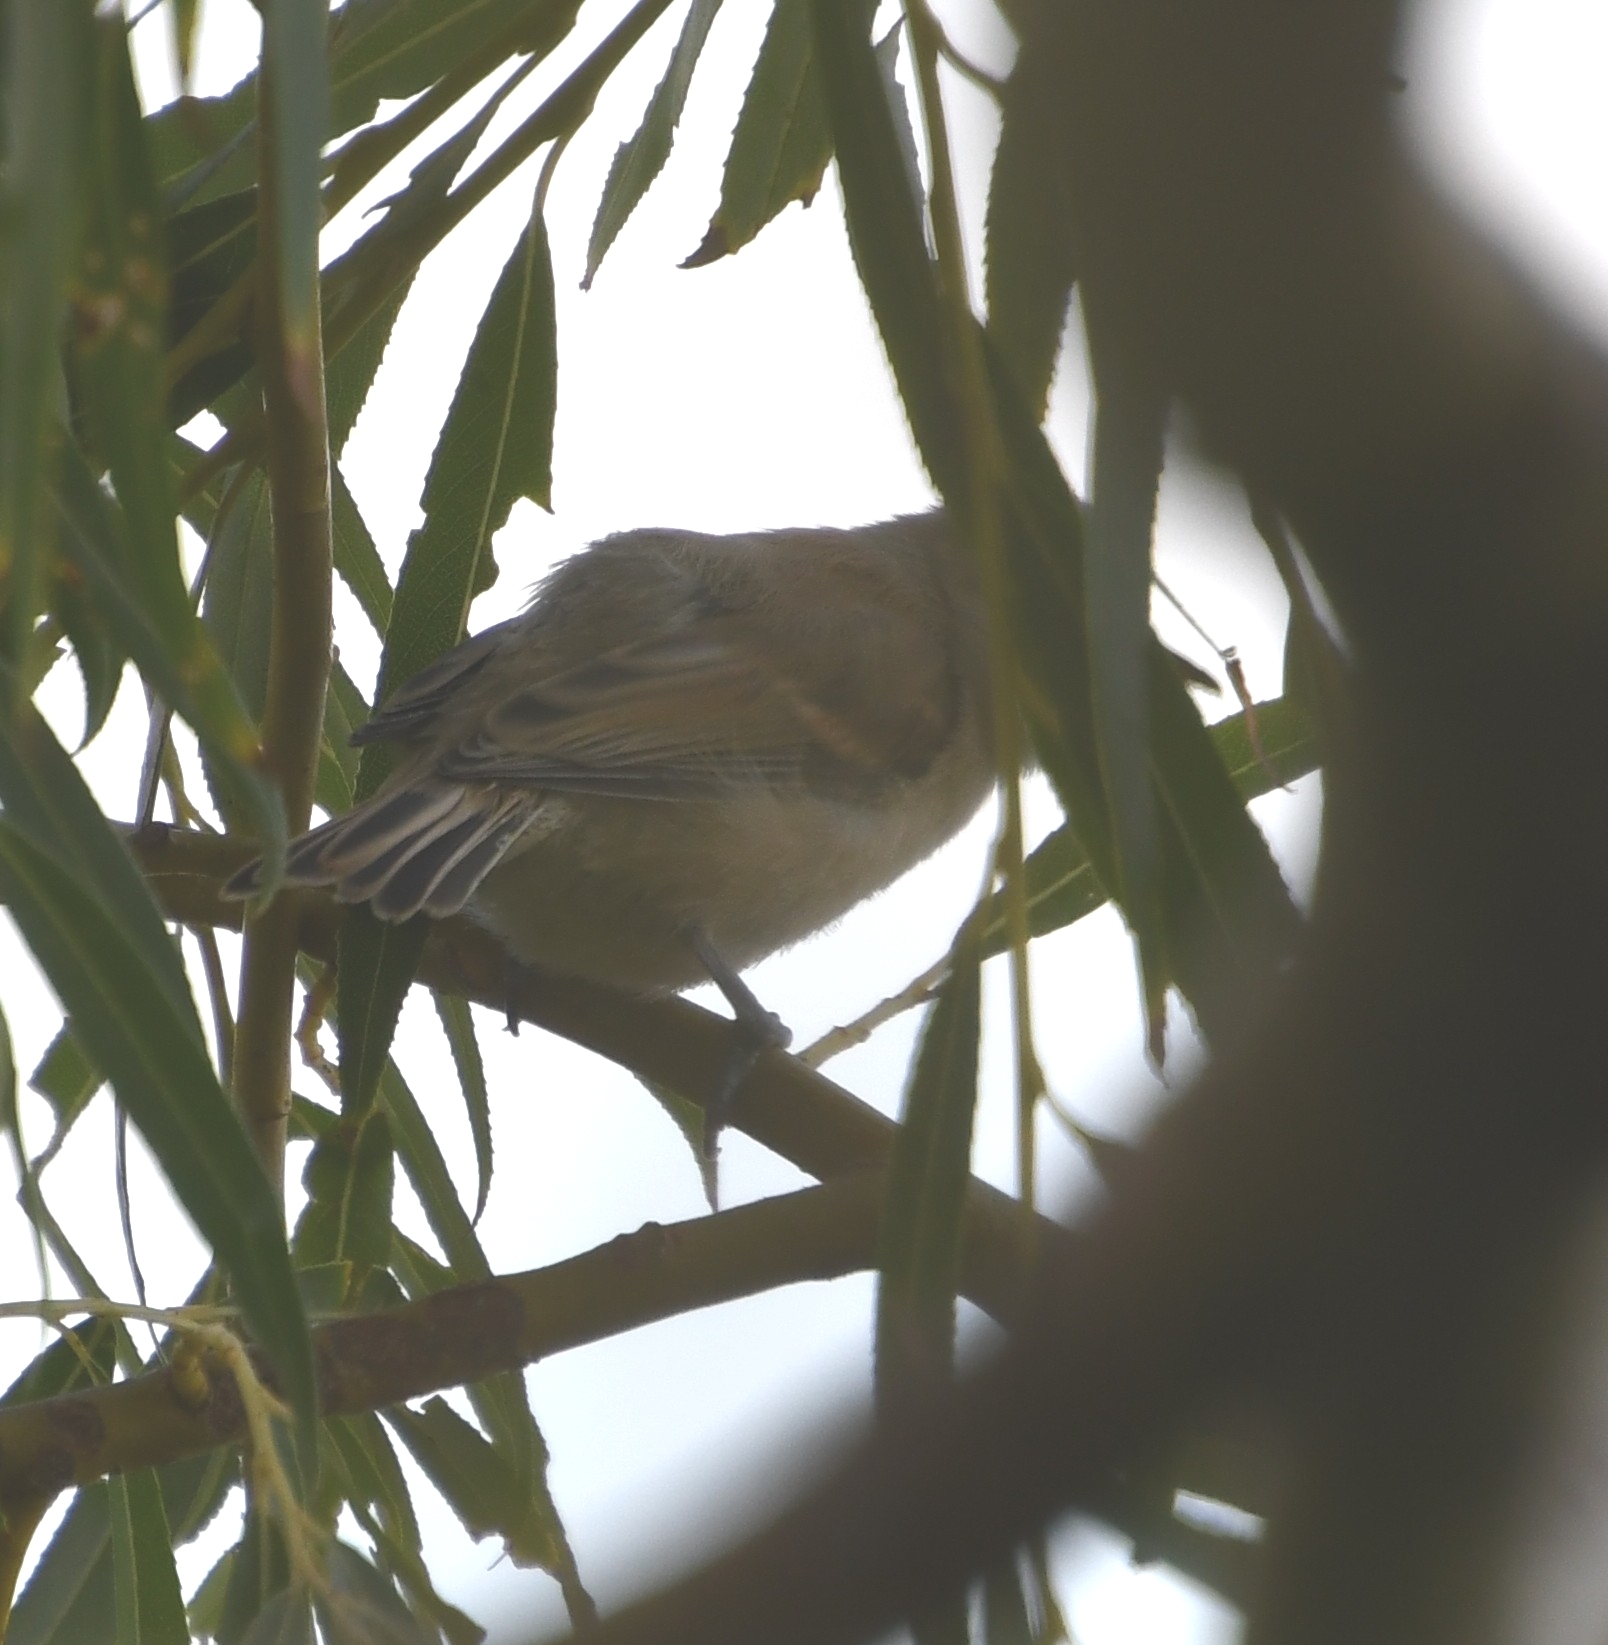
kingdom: Animalia
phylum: Chordata
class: Aves
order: Passeriformes
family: Remizidae
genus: Remiz
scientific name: Remiz pendulinus
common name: Eurasian penduline tit
